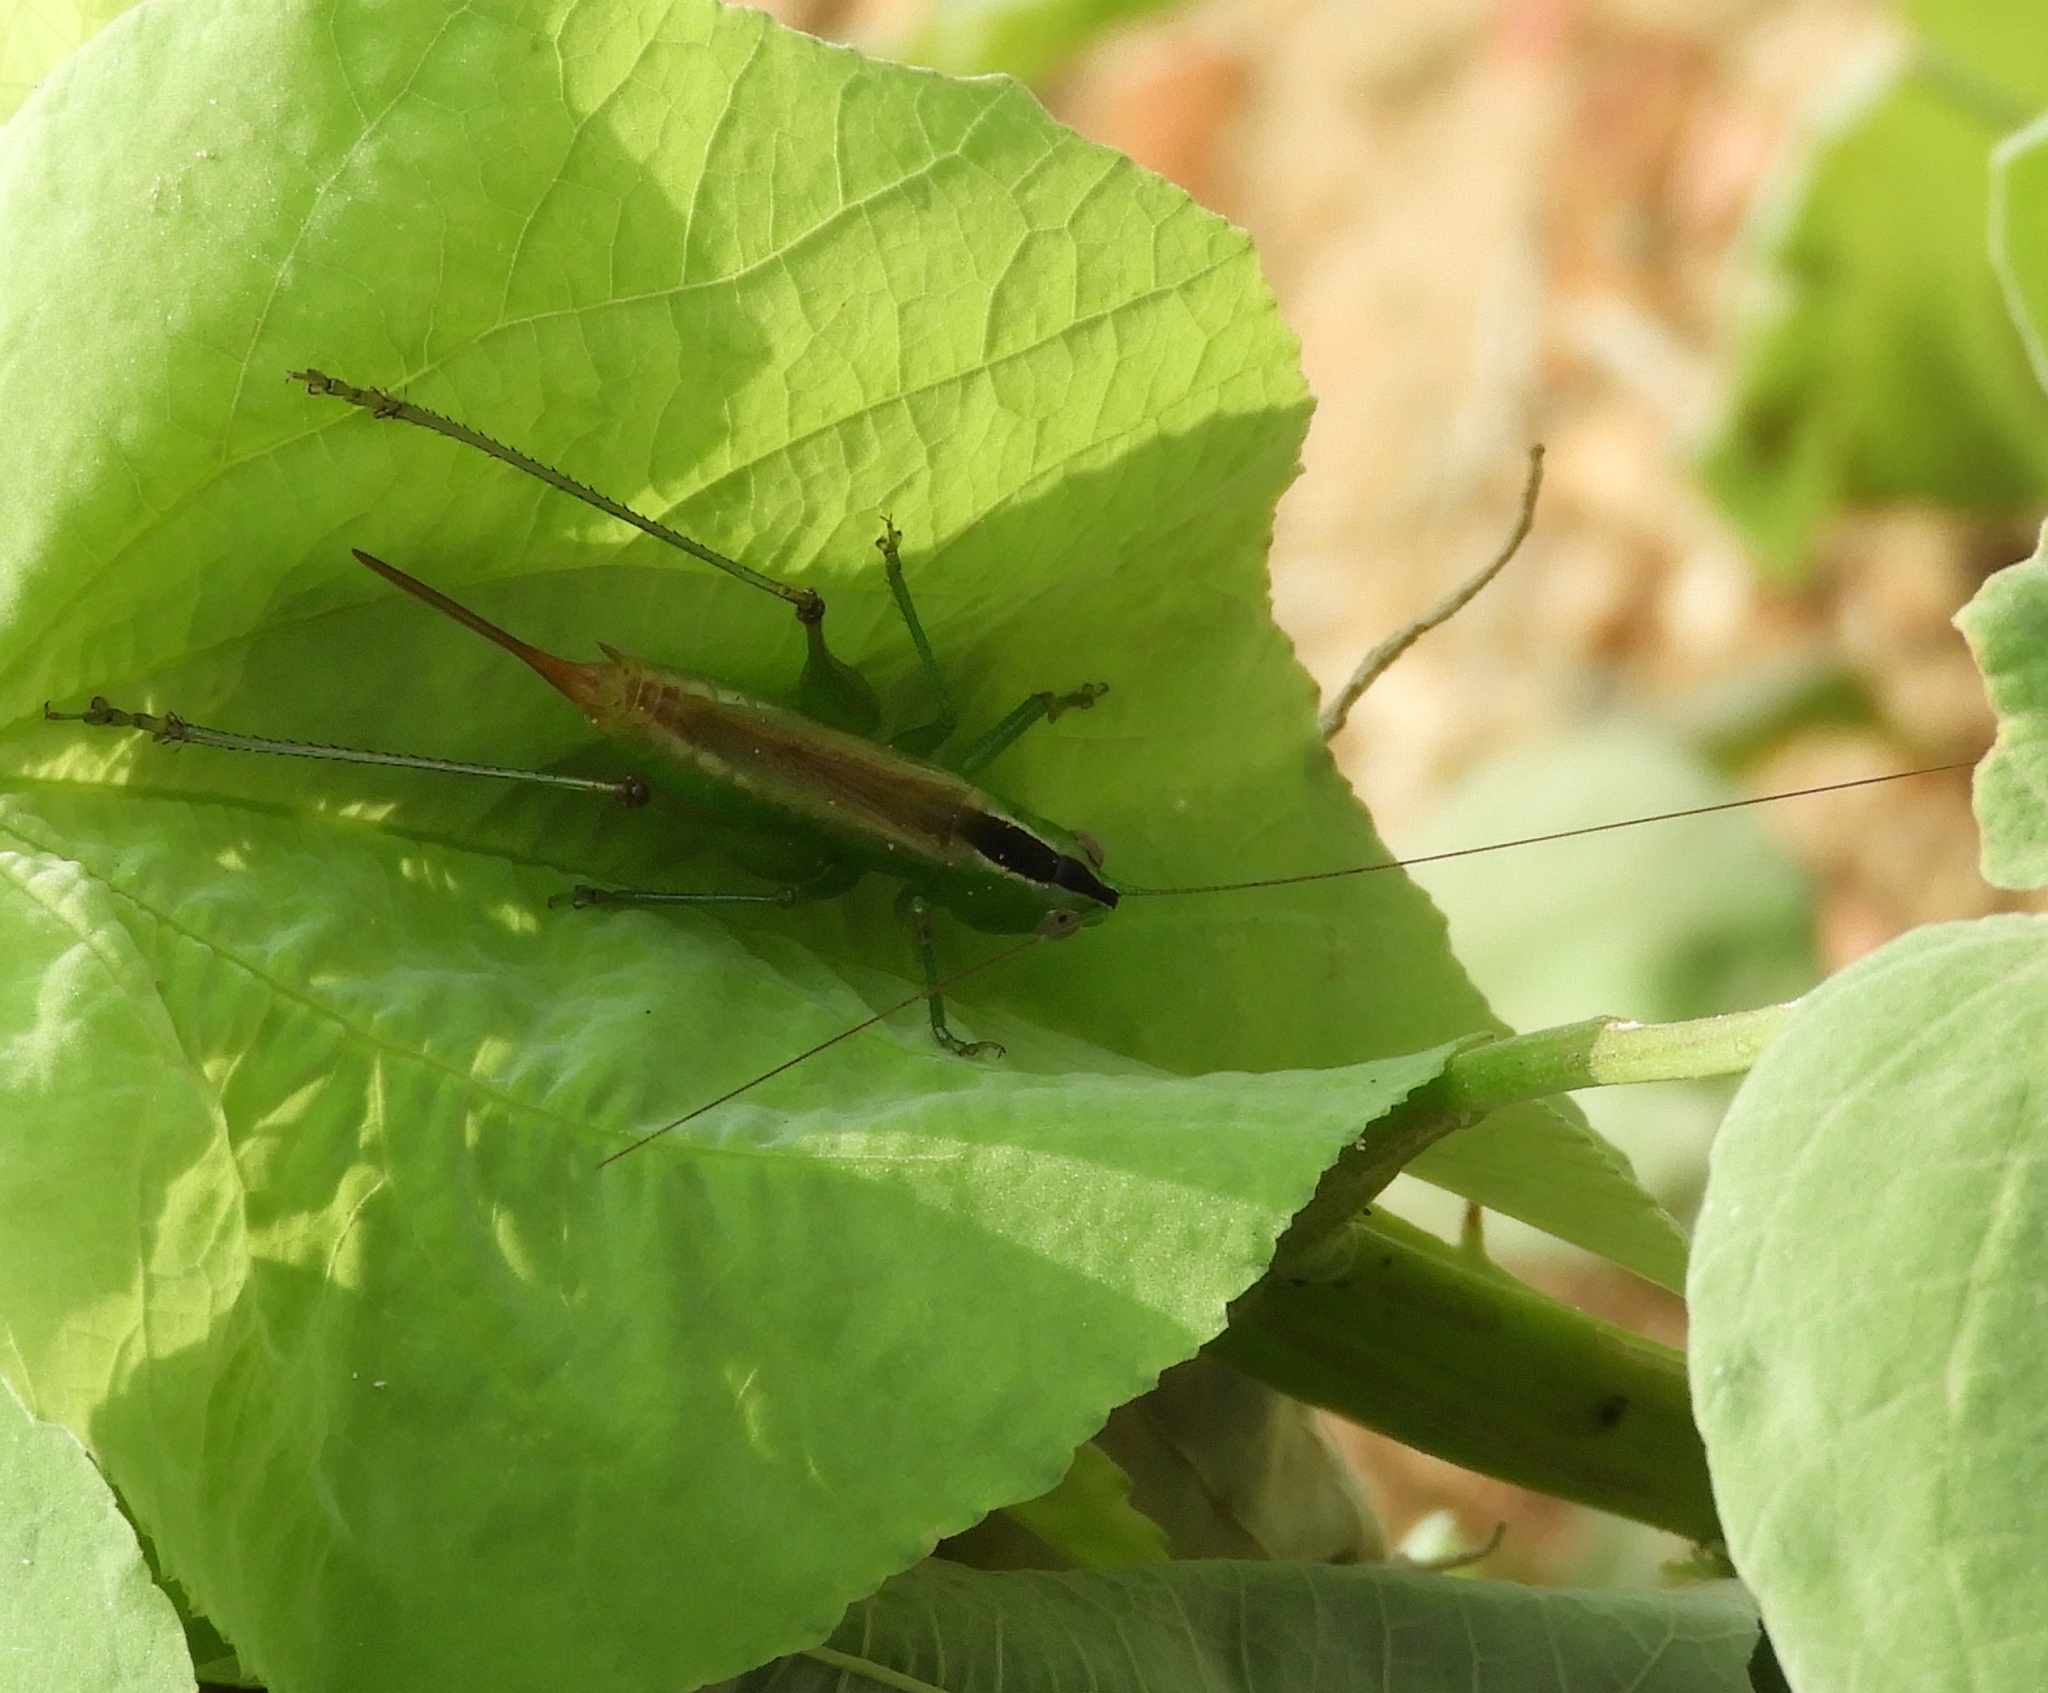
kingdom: Animalia
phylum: Arthropoda
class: Insecta
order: Orthoptera
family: Tettigoniidae
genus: Conocephalus
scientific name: Conocephalus
